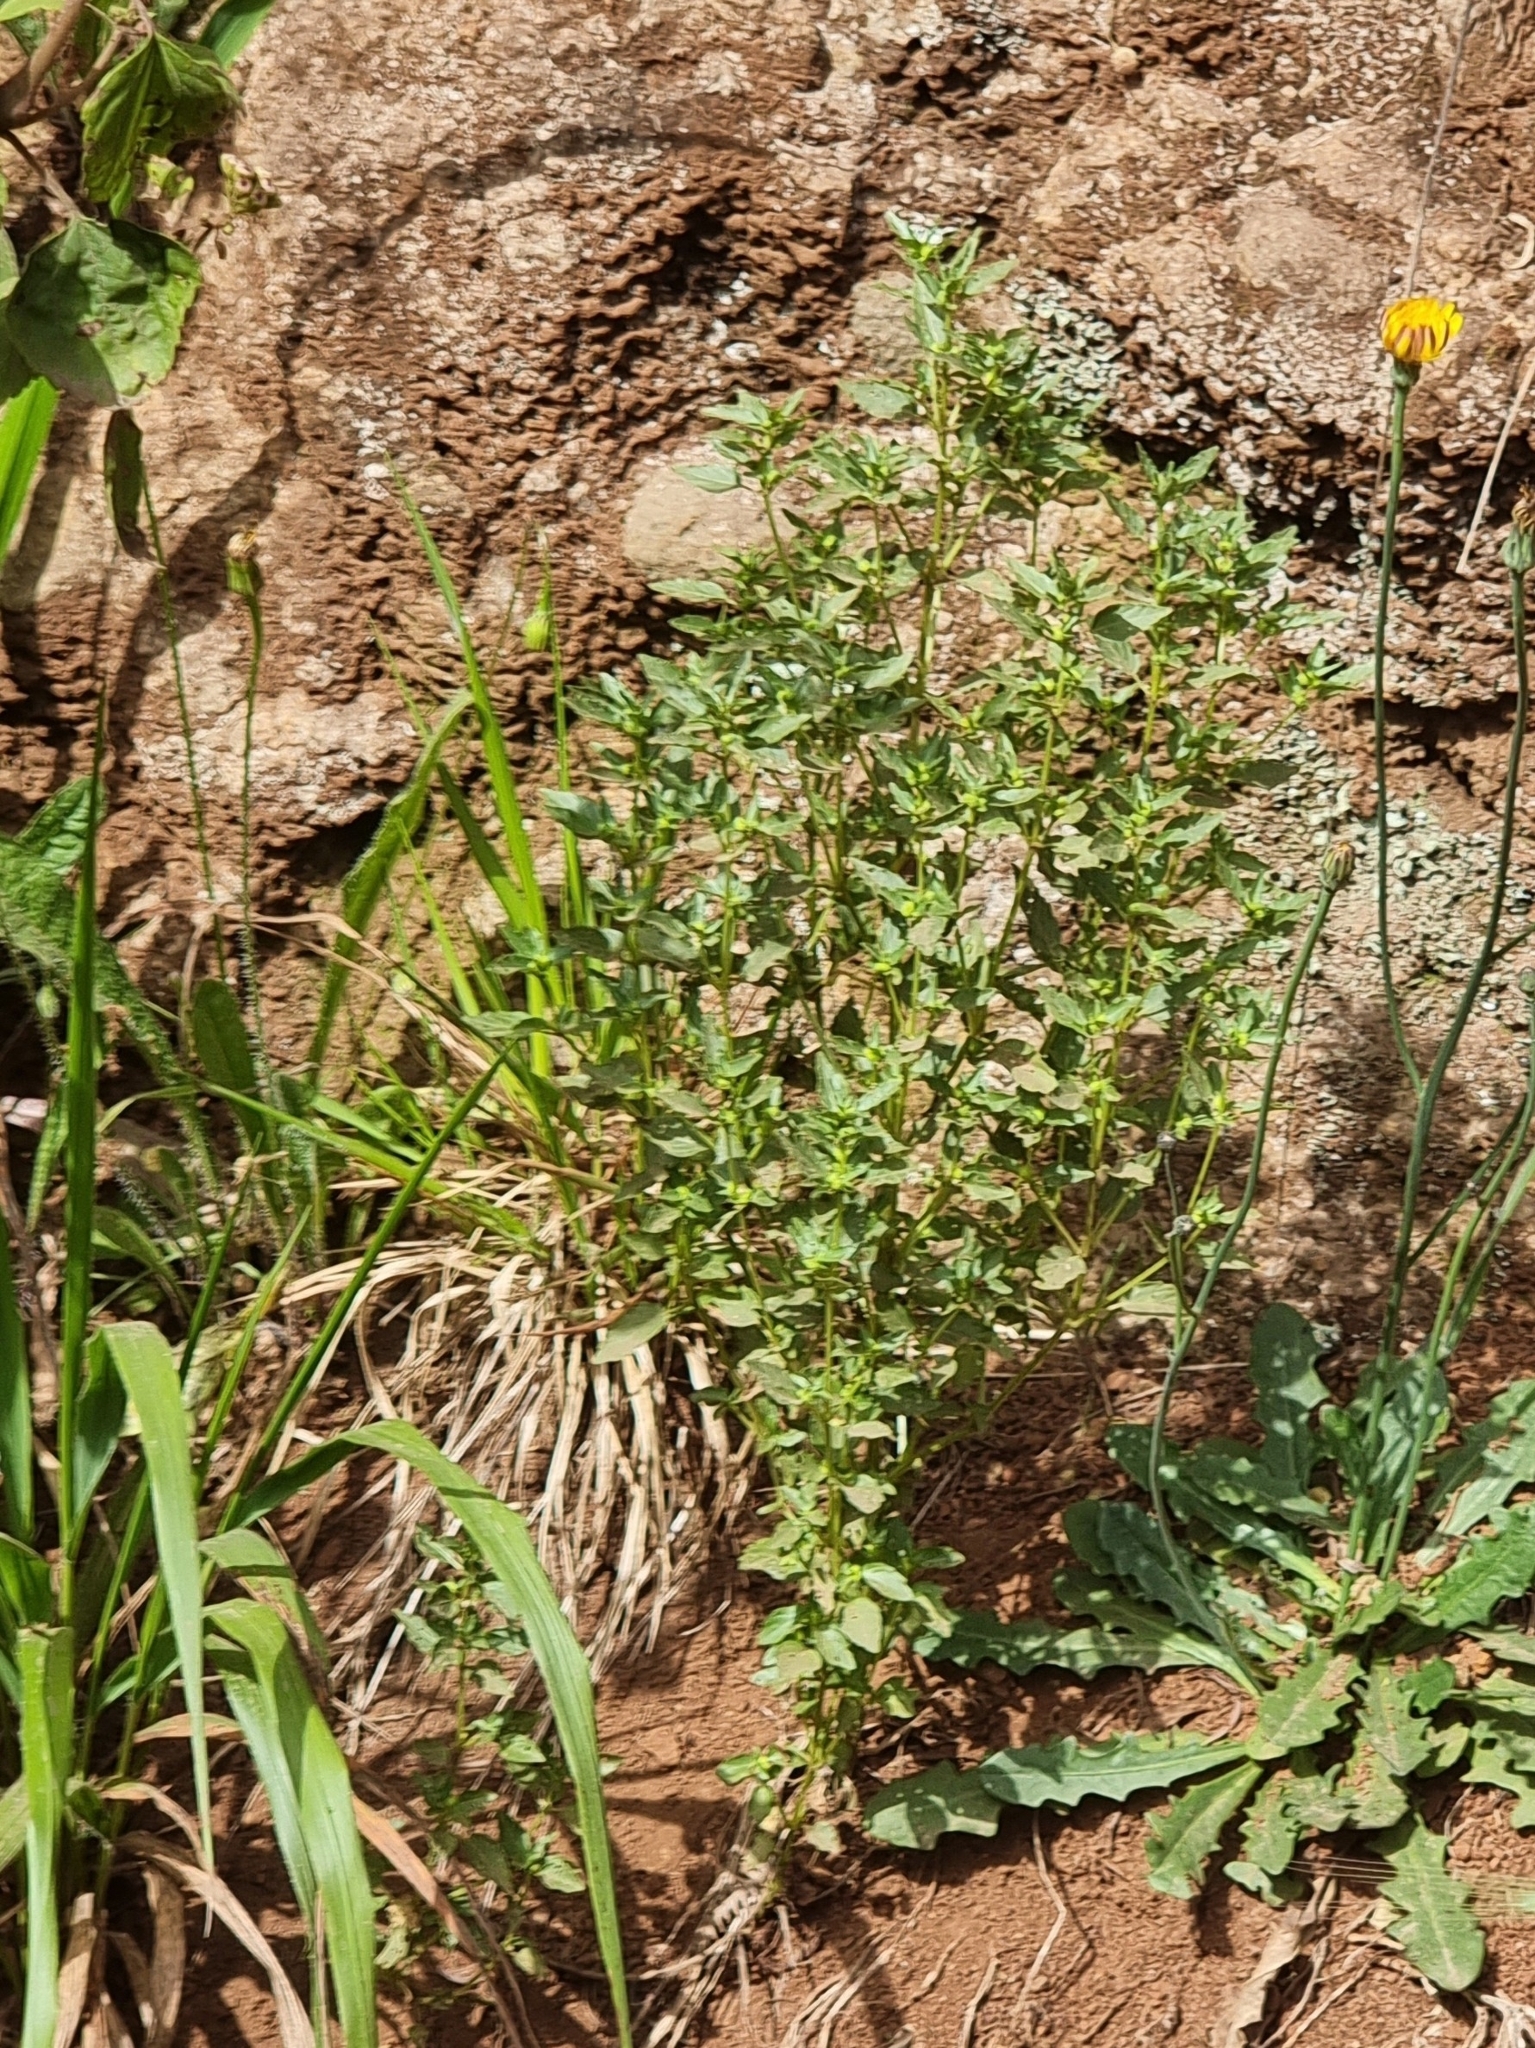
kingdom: Plantae
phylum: Tracheophyta
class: Magnoliopsida
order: Malpighiales
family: Euphorbiaceae
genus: Mercurialis
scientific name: Mercurialis annua
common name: Annual mercury
